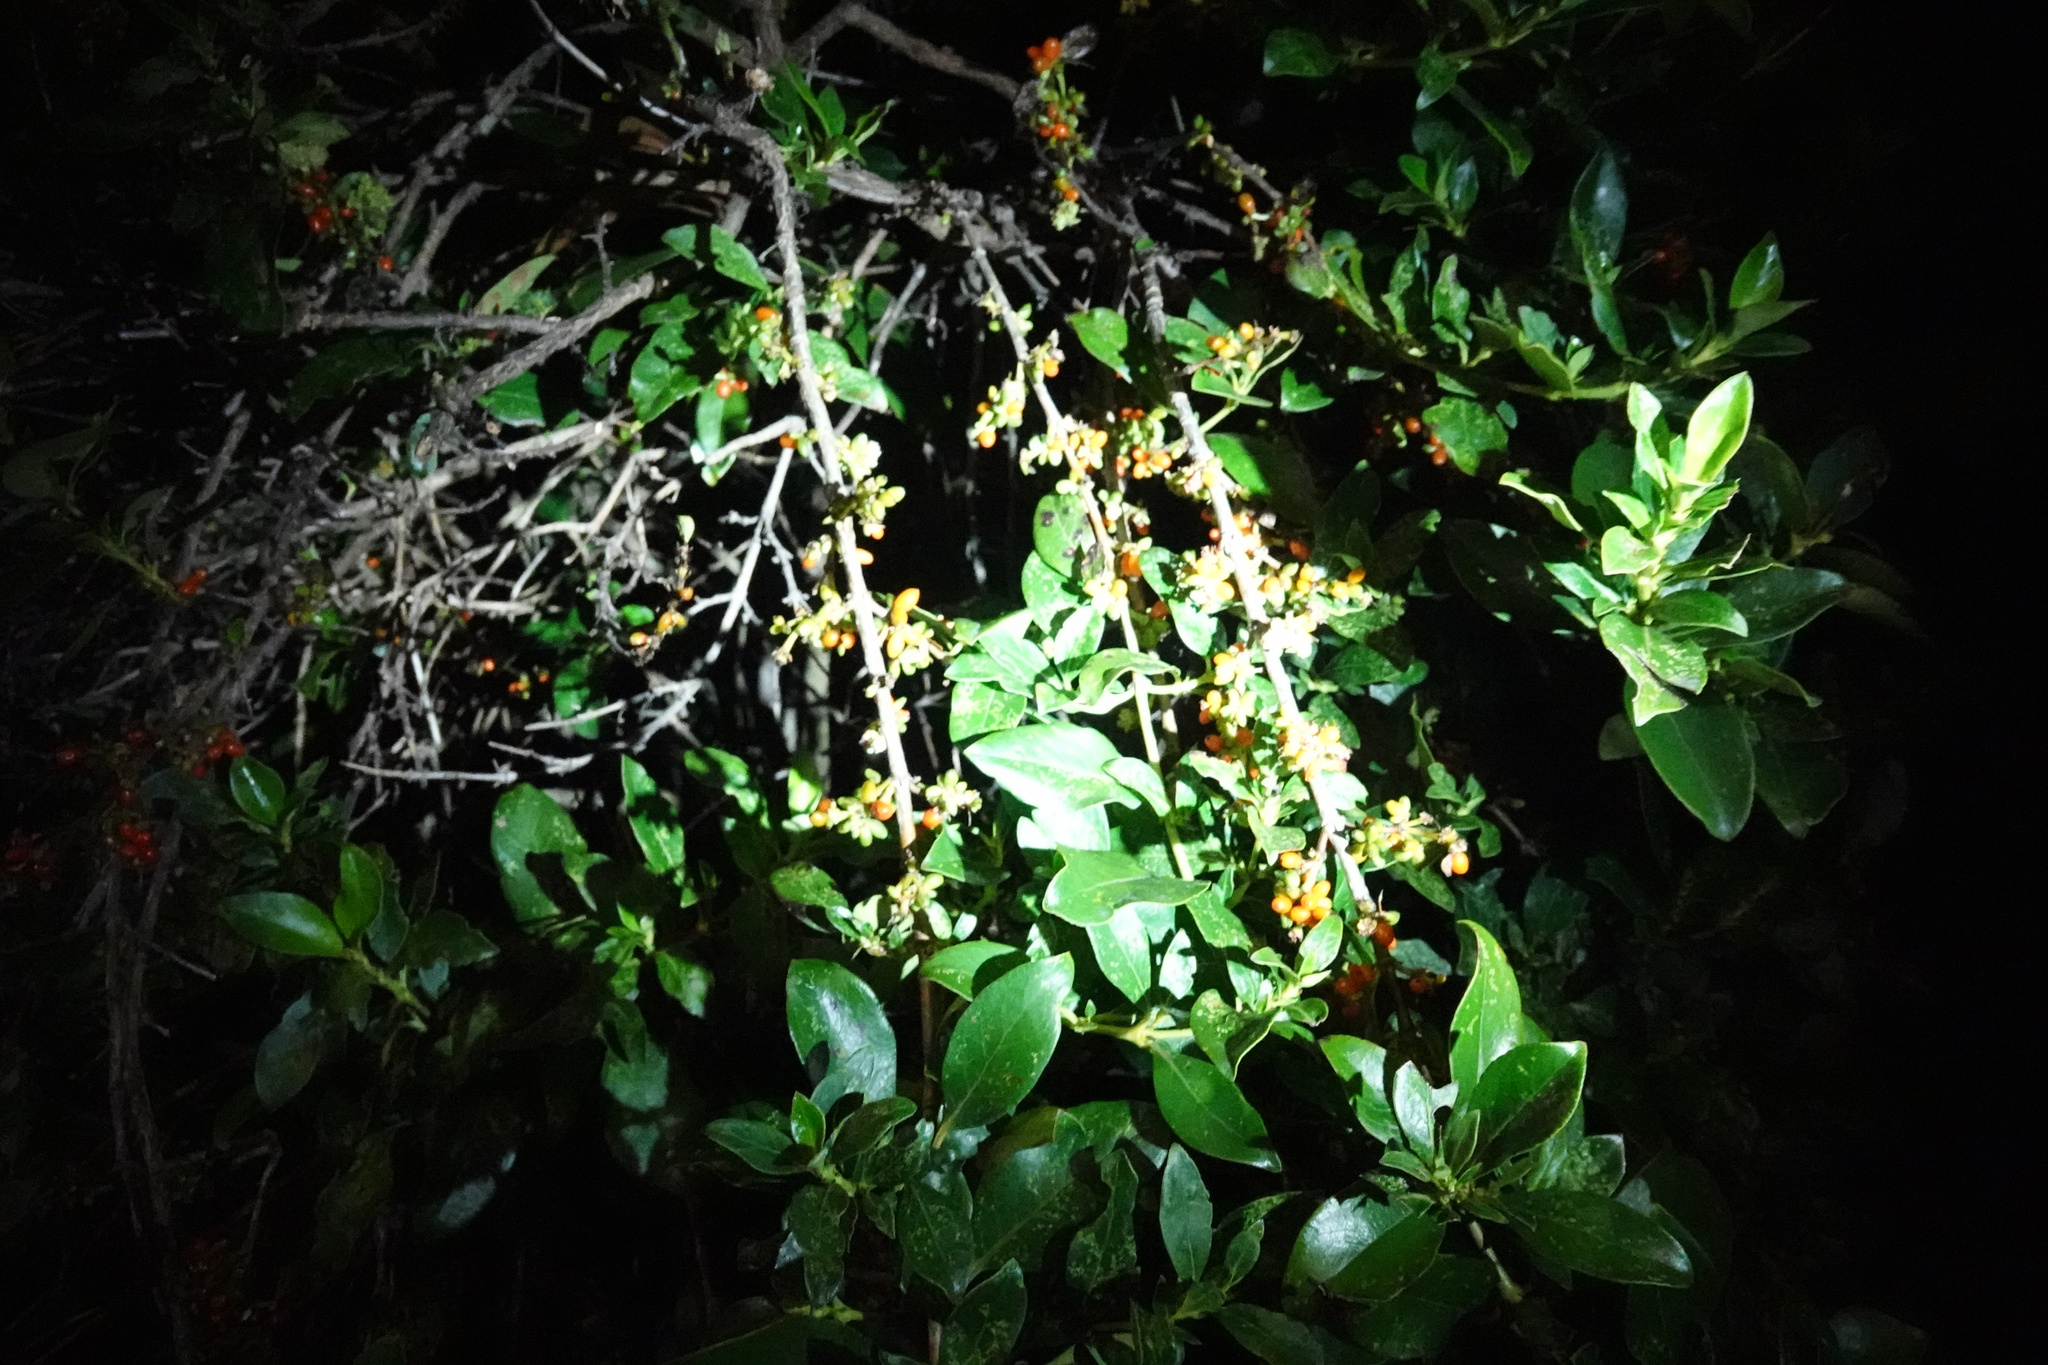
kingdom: Plantae
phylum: Tracheophyta
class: Magnoliopsida
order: Gentianales
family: Rubiaceae
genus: Coprosma
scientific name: Coprosma robusta
